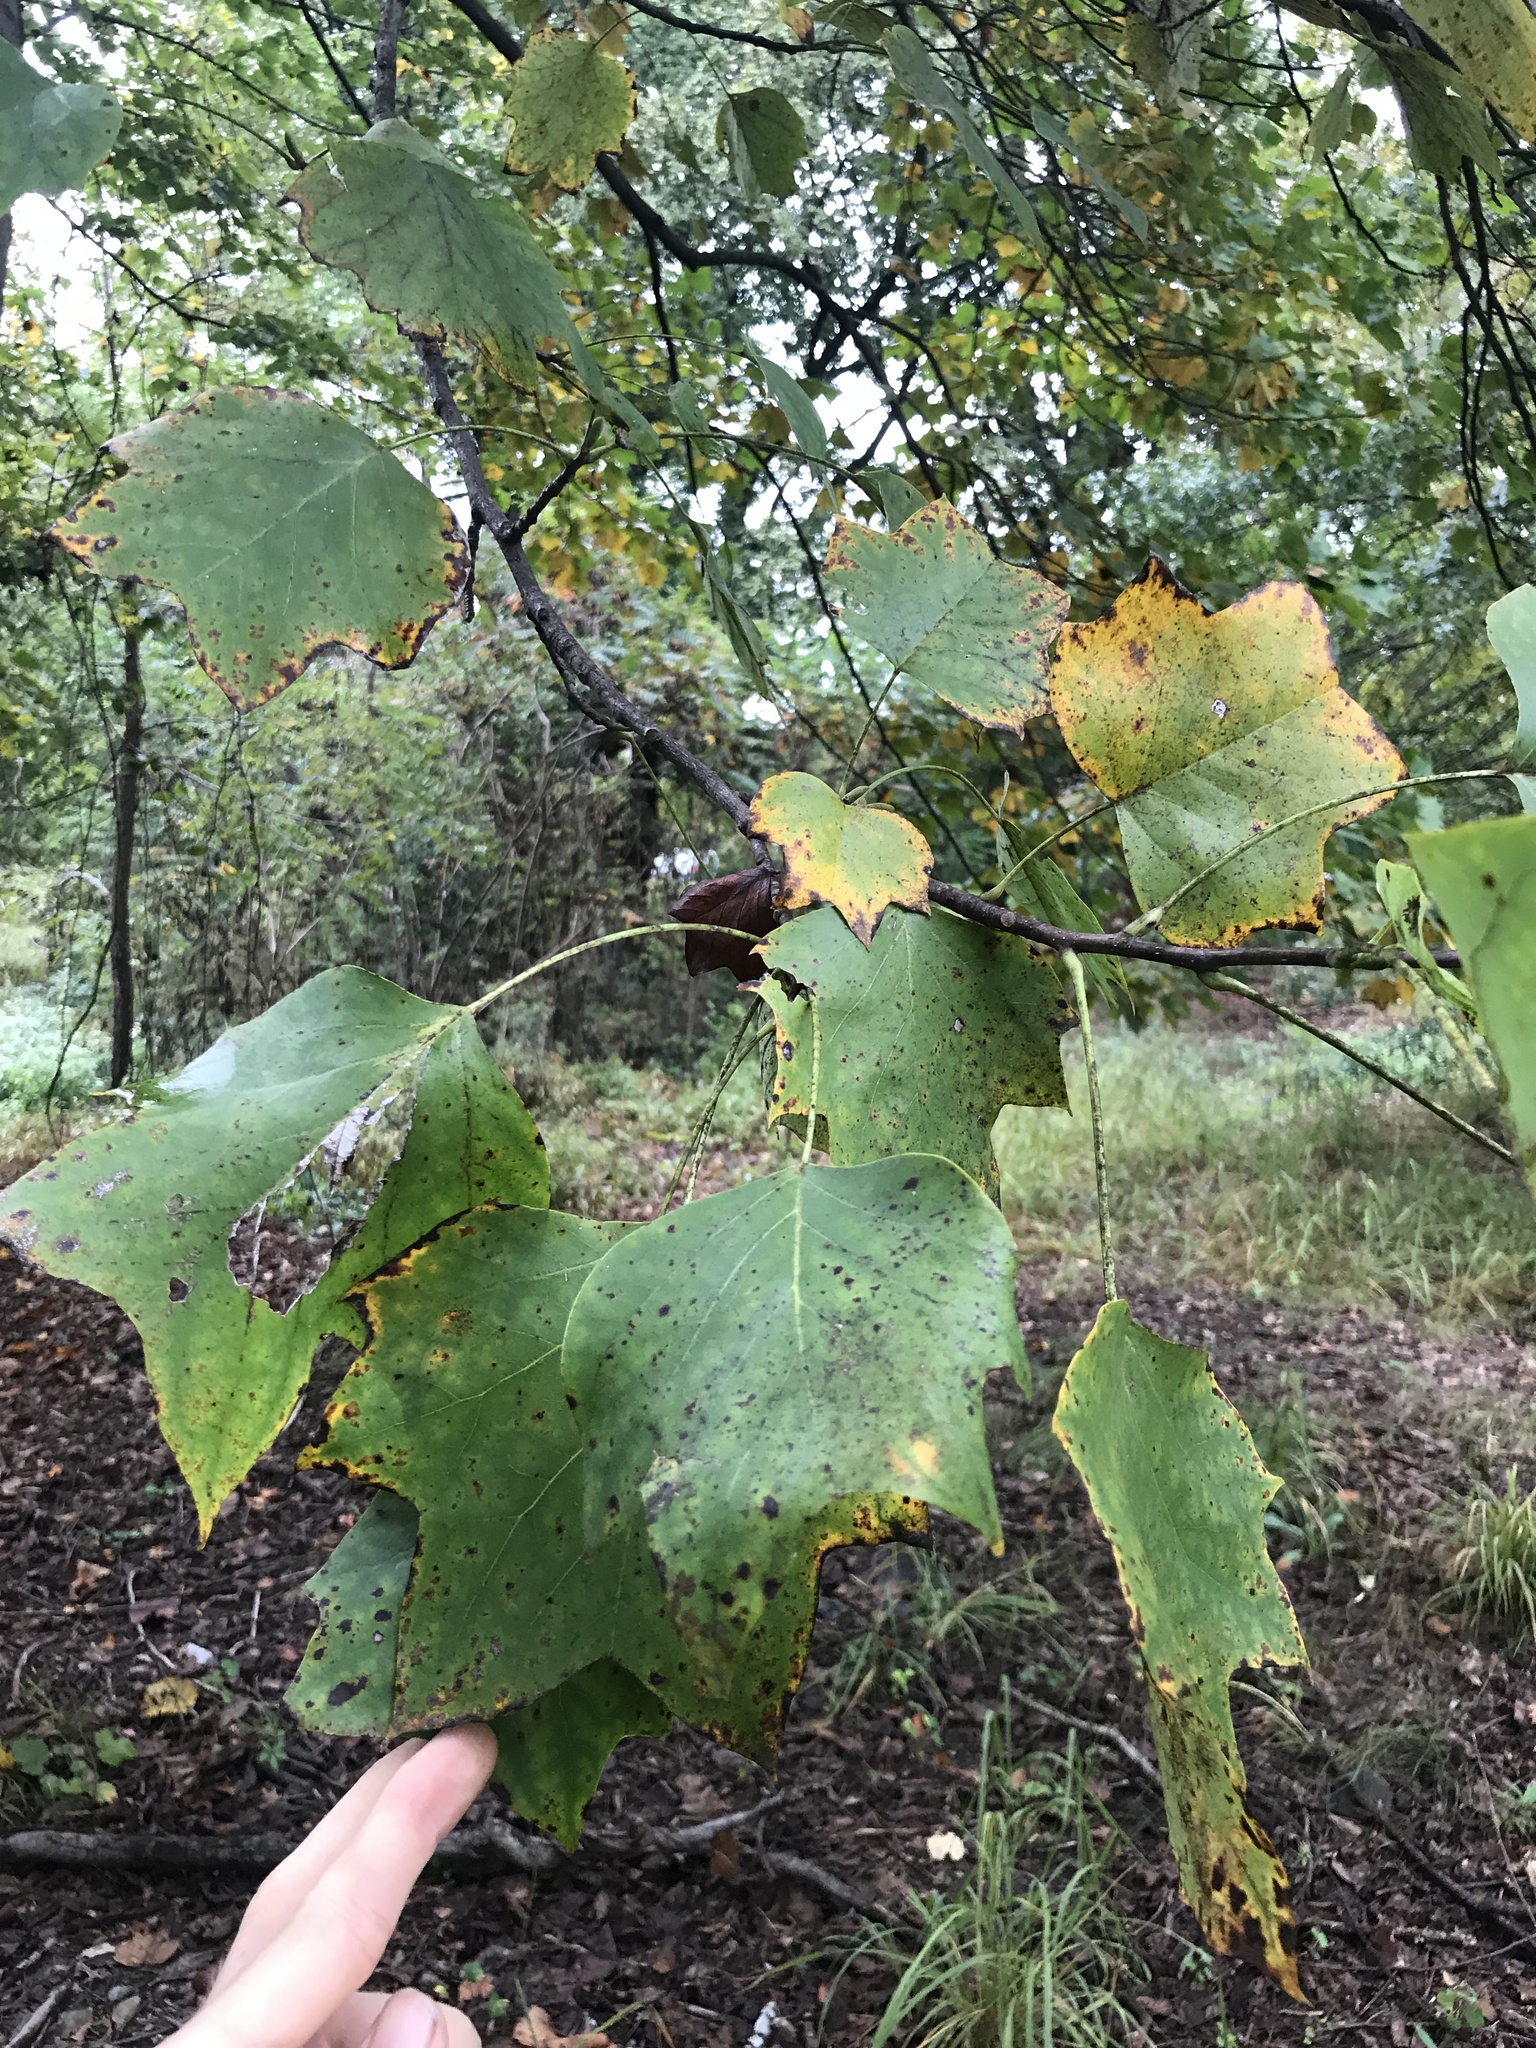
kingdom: Plantae
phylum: Tracheophyta
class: Magnoliopsida
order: Magnoliales
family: Magnoliaceae
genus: Liriodendron
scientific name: Liriodendron tulipifera
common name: Tulip tree
